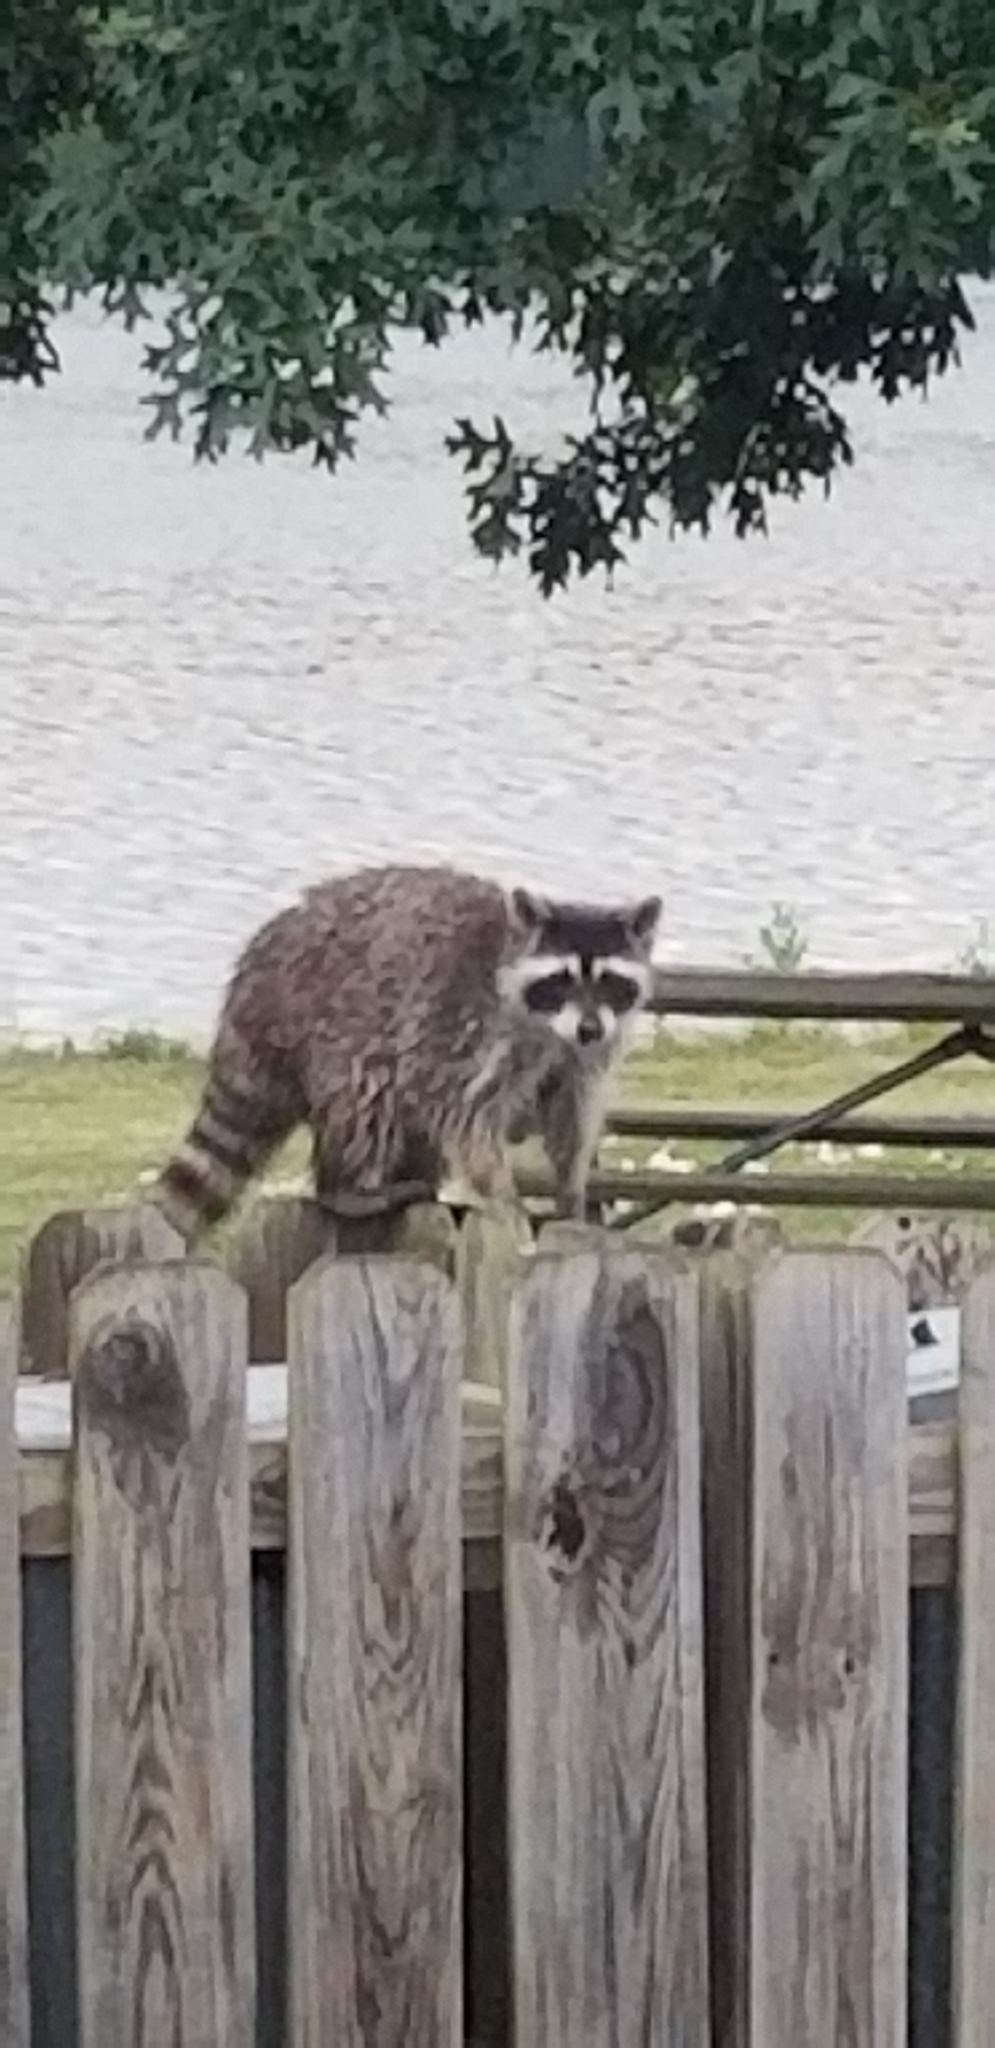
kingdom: Animalia
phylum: Chordata
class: Mammalia
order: Carnivora
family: Procyonidae
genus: Procyon
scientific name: Procyon lotor
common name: Raccoon
